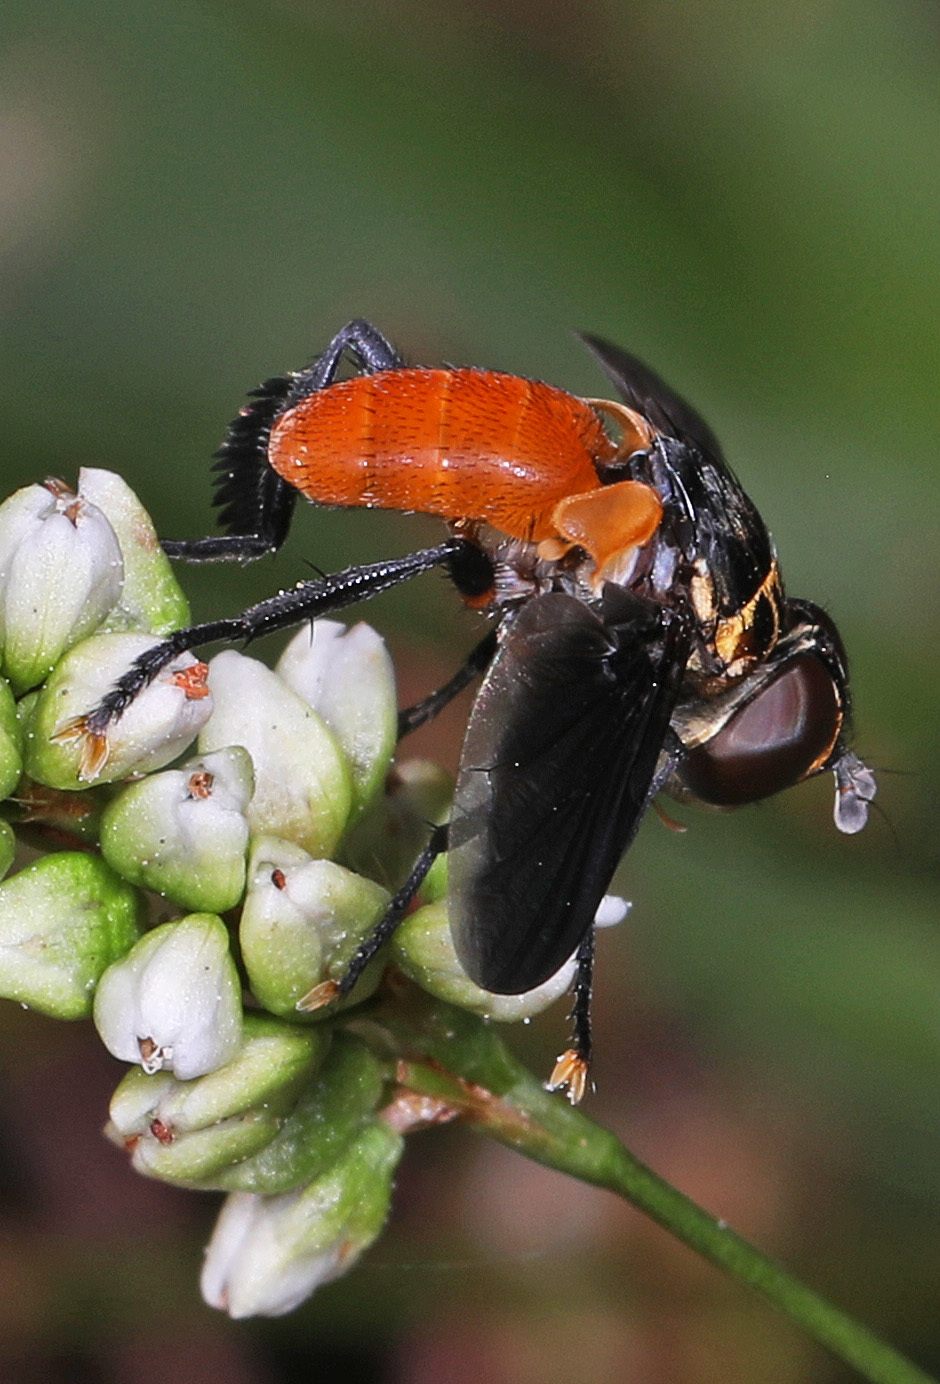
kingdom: Animalia
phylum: Arthropoda
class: Insecta
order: Diptera
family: Tachinidae
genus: Trichopoda
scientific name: Trichopoda pennipes
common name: Tachinid fly
